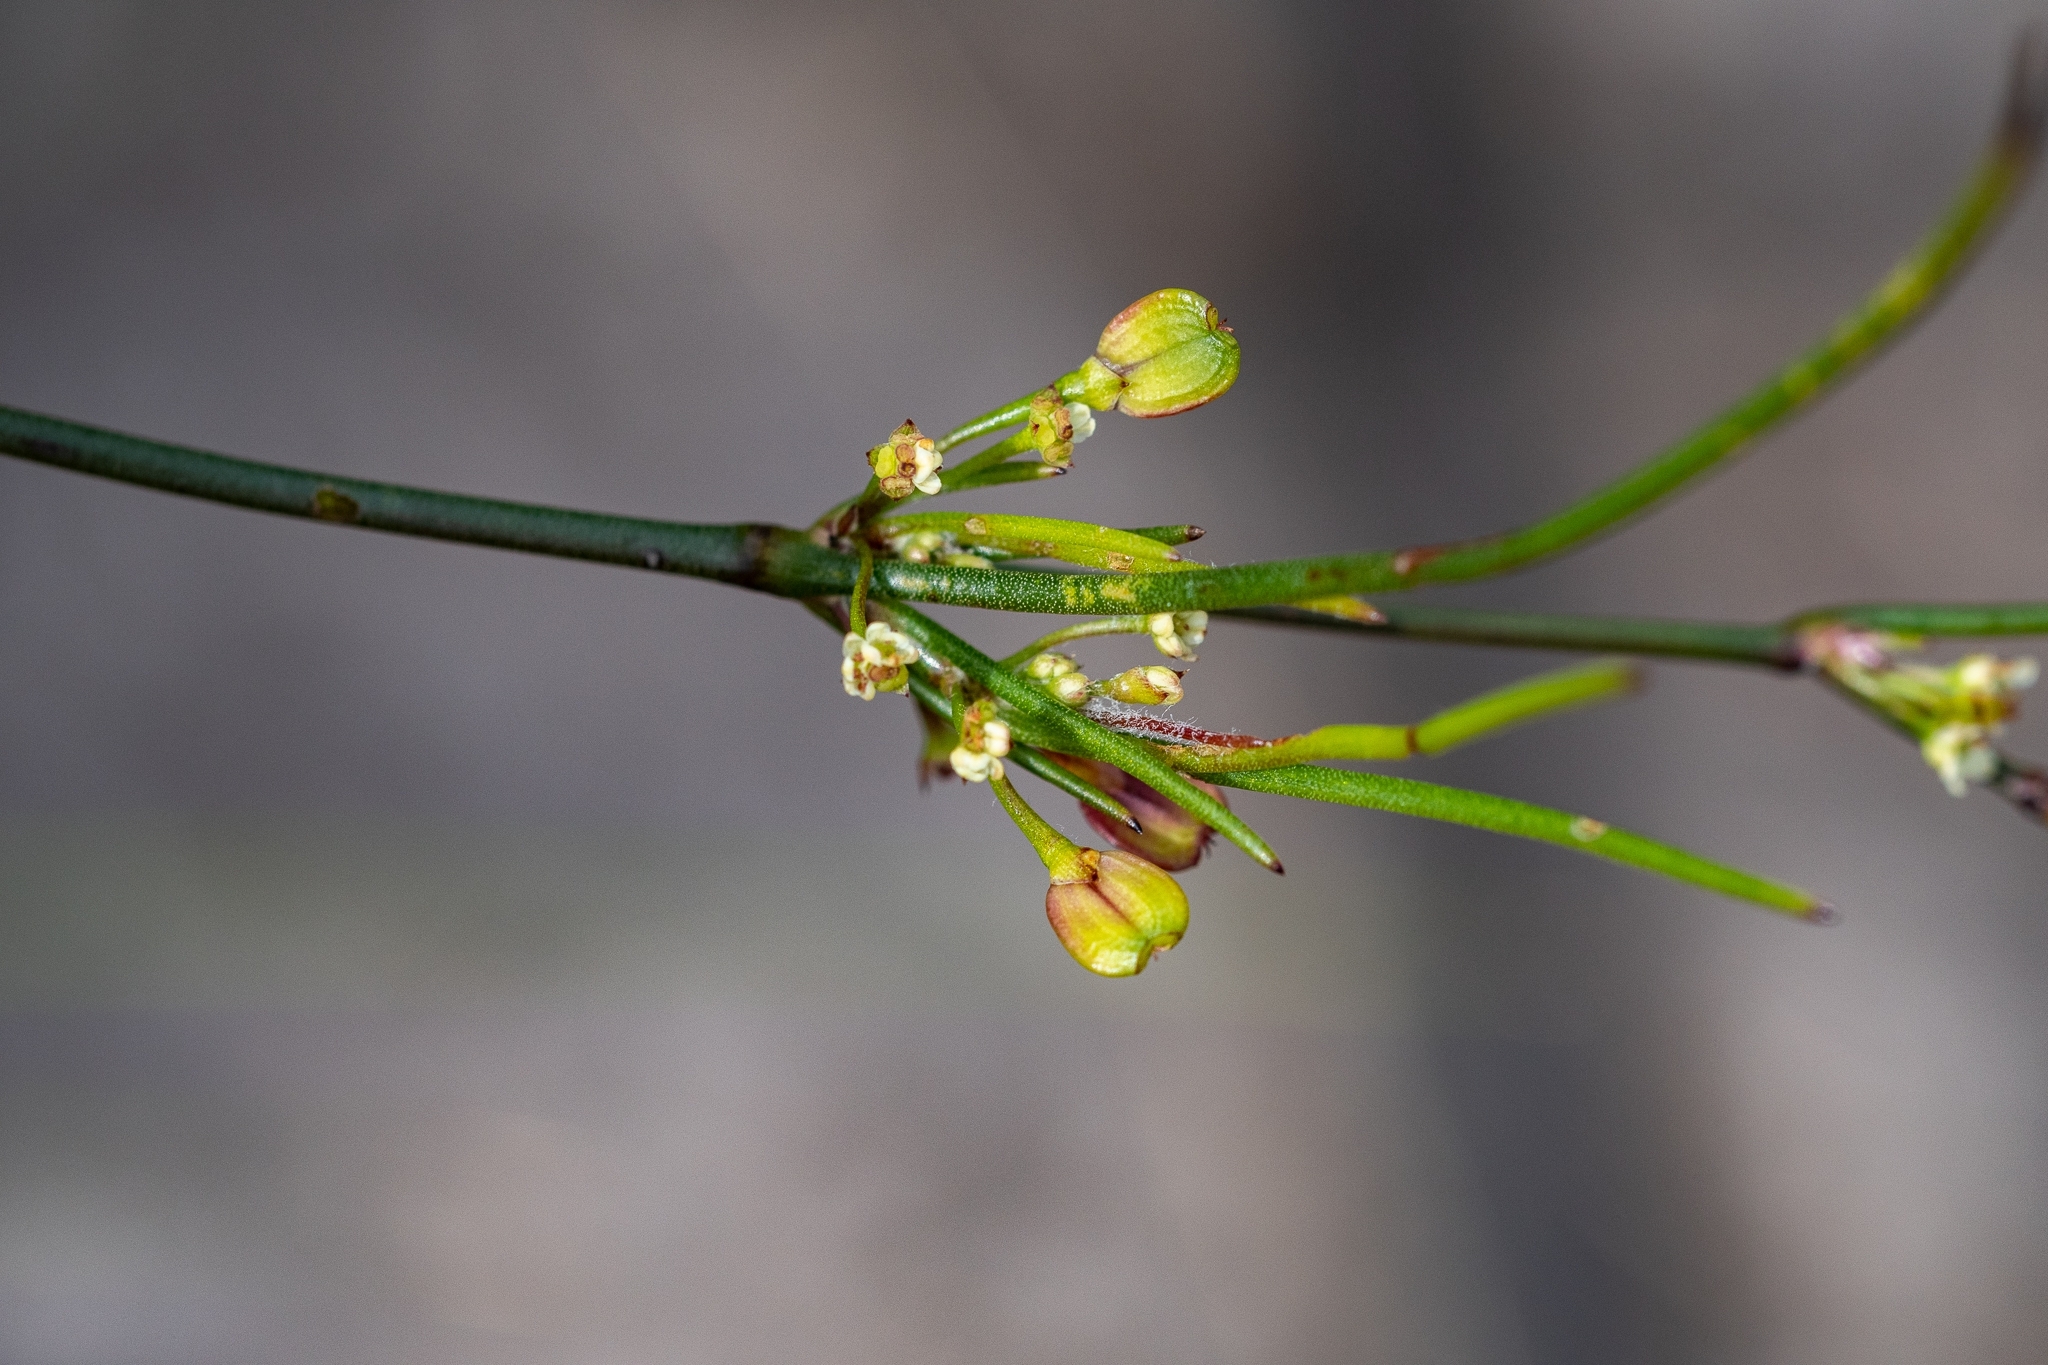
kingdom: Plantae
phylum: Tracheophyta
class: Magnoliopsida
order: Apiales
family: Apiaceae
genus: Centella
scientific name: Centella macrocarpa
